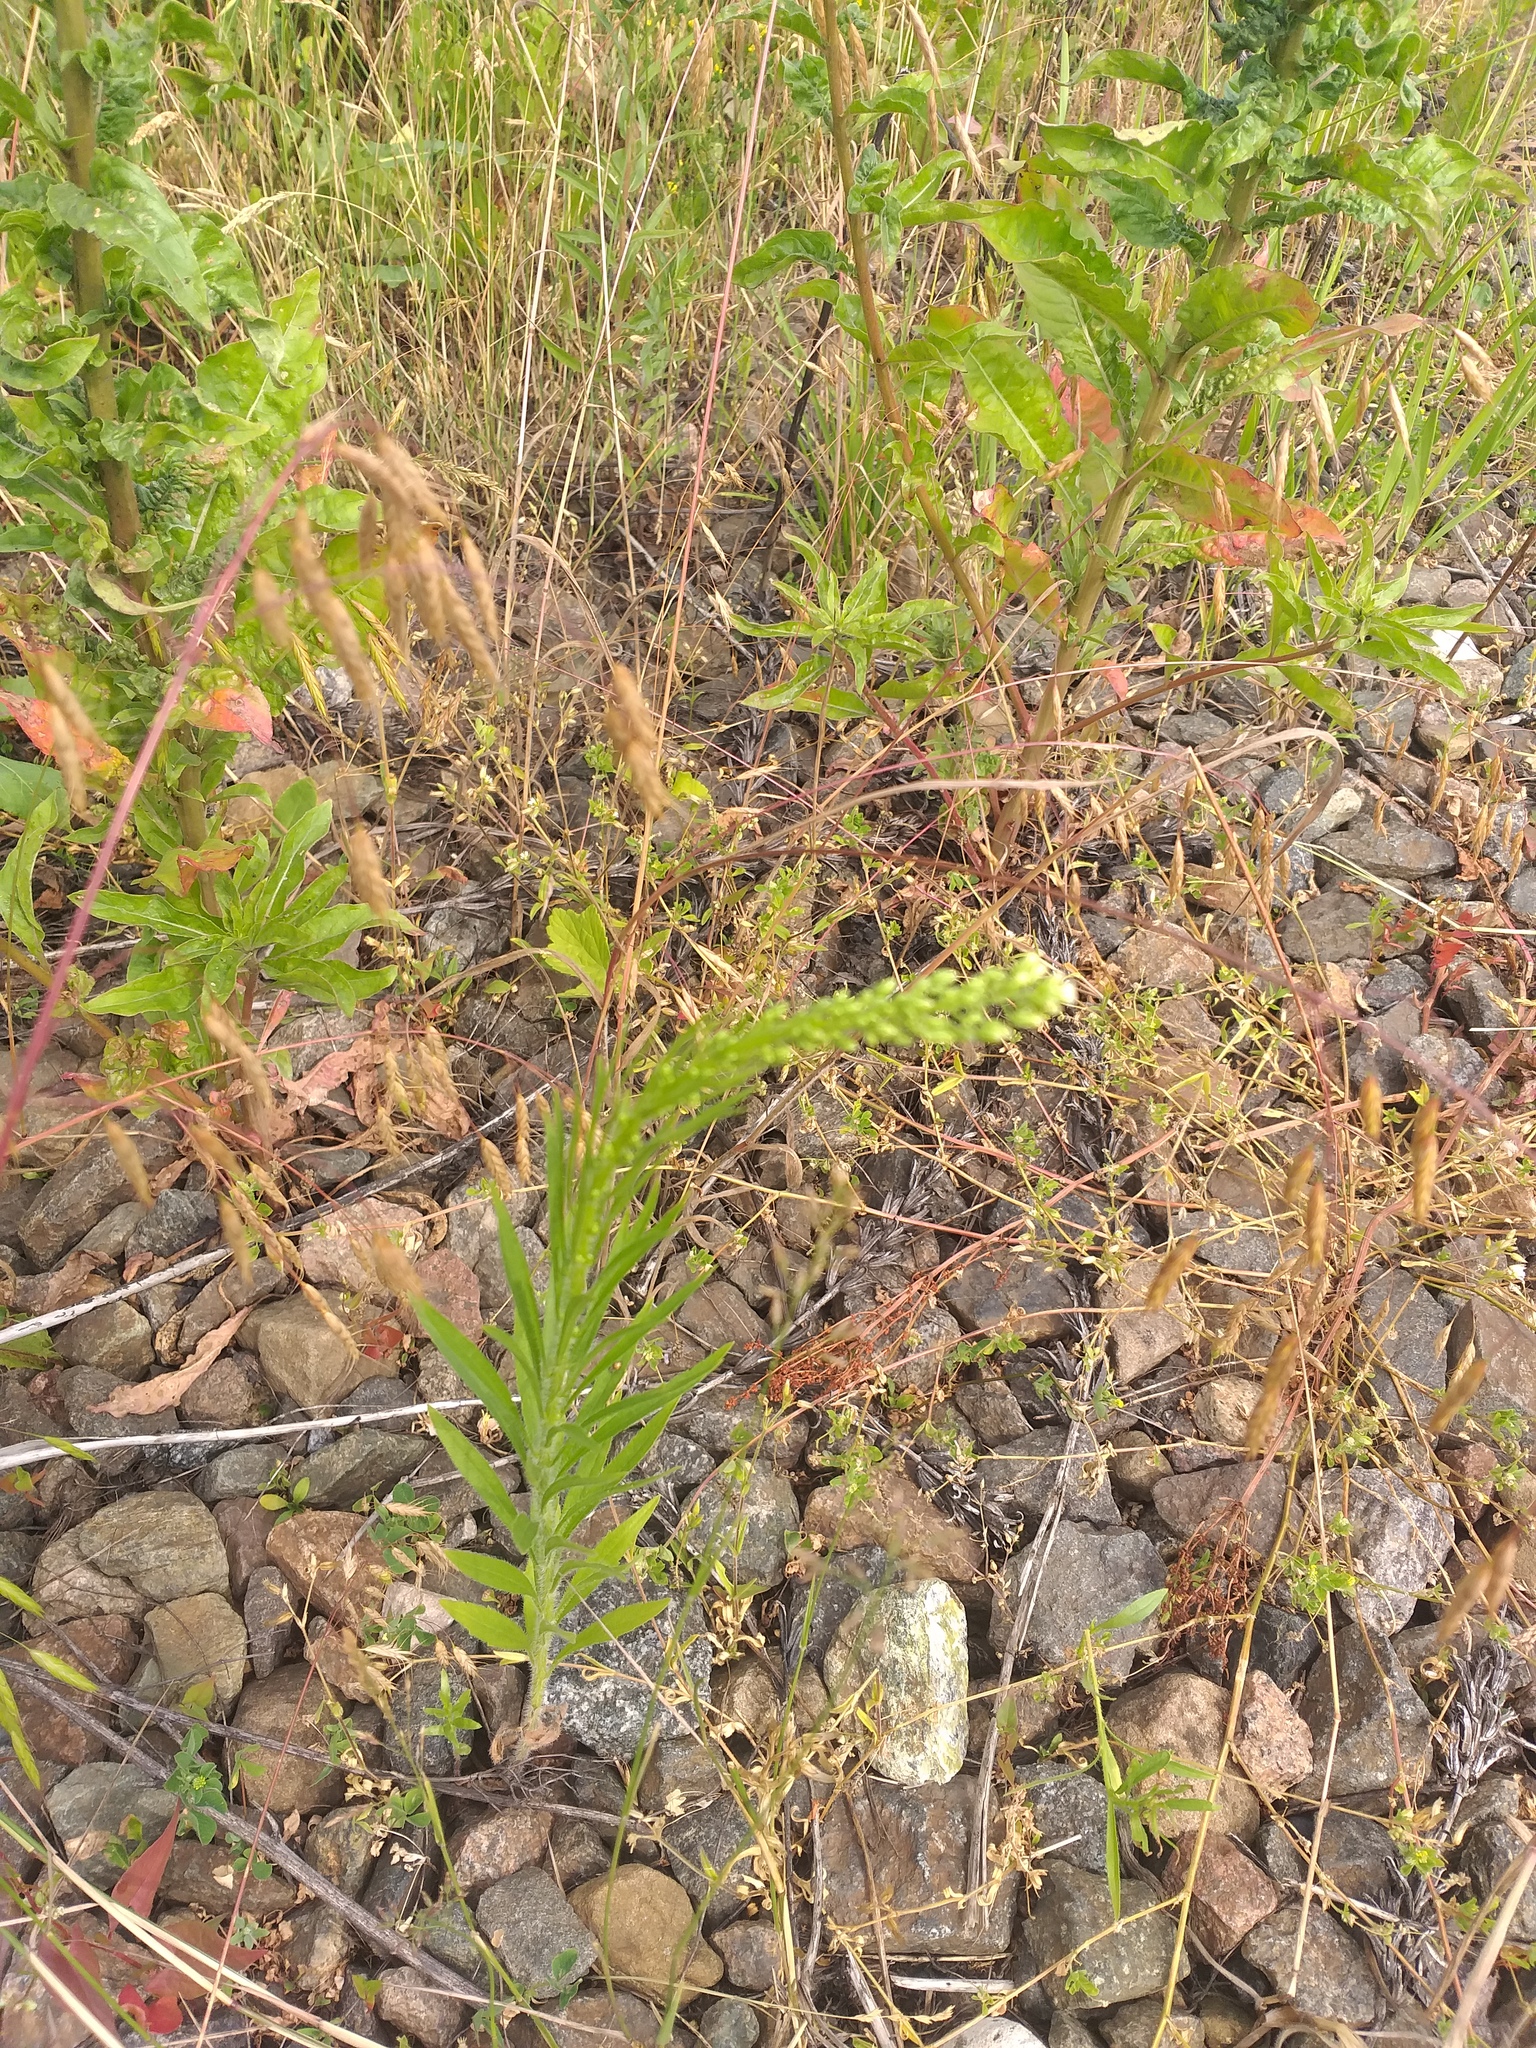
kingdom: Plantae
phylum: Tracheophyta
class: Magnoliopsida
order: Asterales
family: Asteraceae
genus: Erigeron
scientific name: Erigeron canadensis
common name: Canadian fleabane
